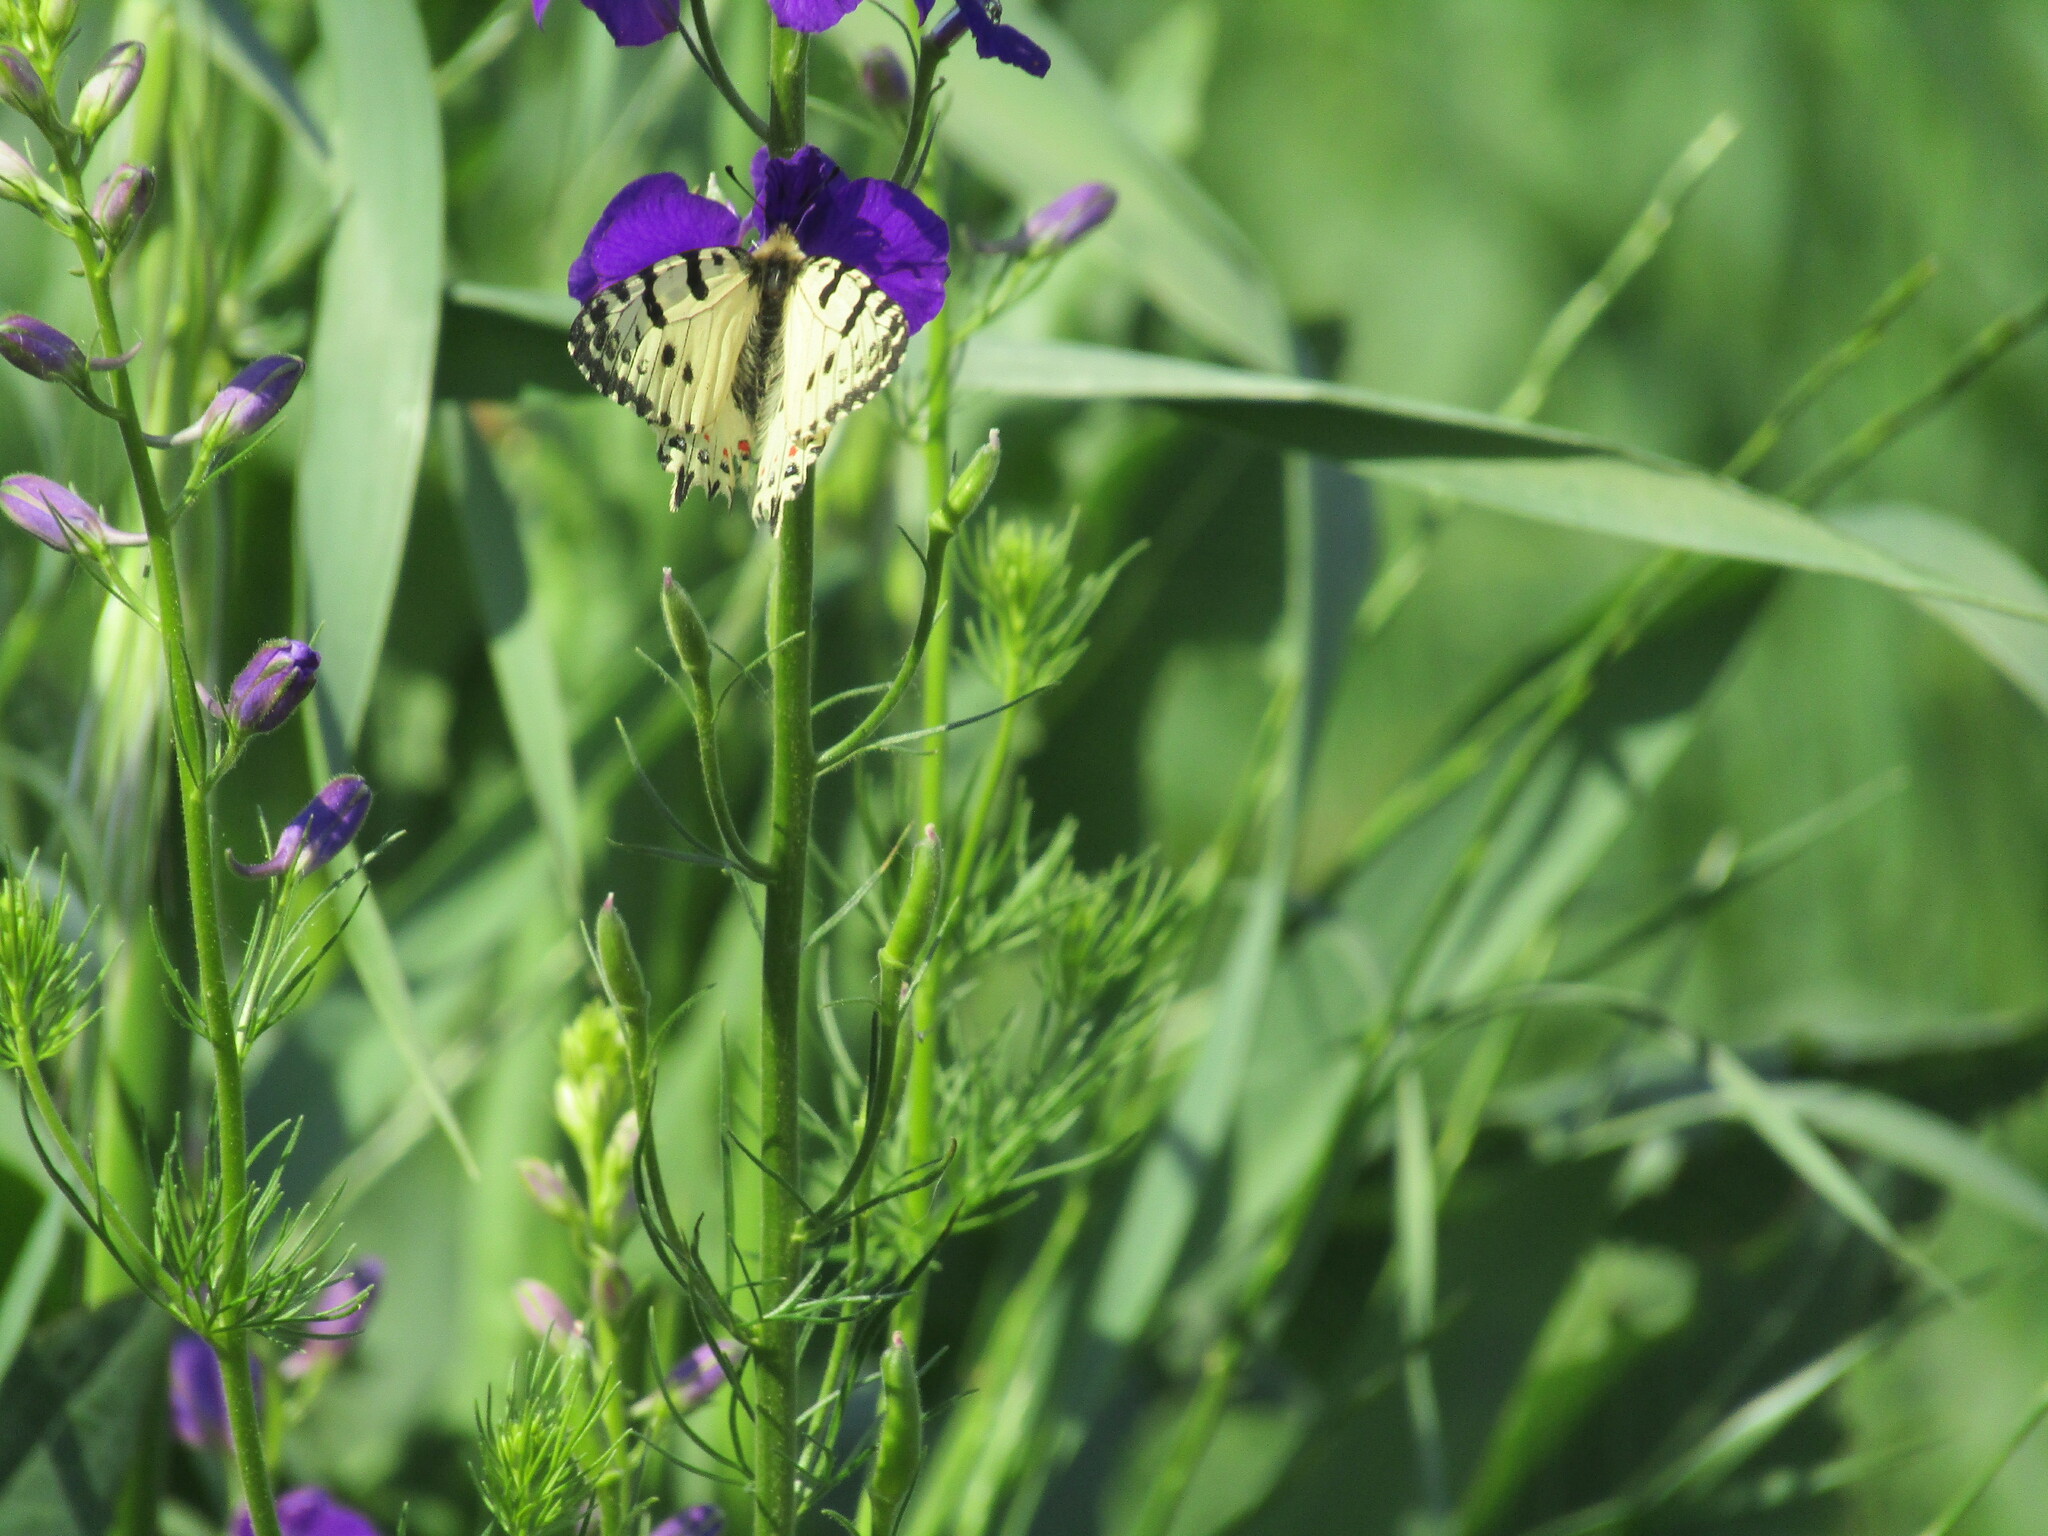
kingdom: Animalia
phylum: Arthropoda
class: Insecta
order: Lepidoptera
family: Papilionidae
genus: Zerynthia
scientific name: Zerynthia cerisy
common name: Eastern festoon
